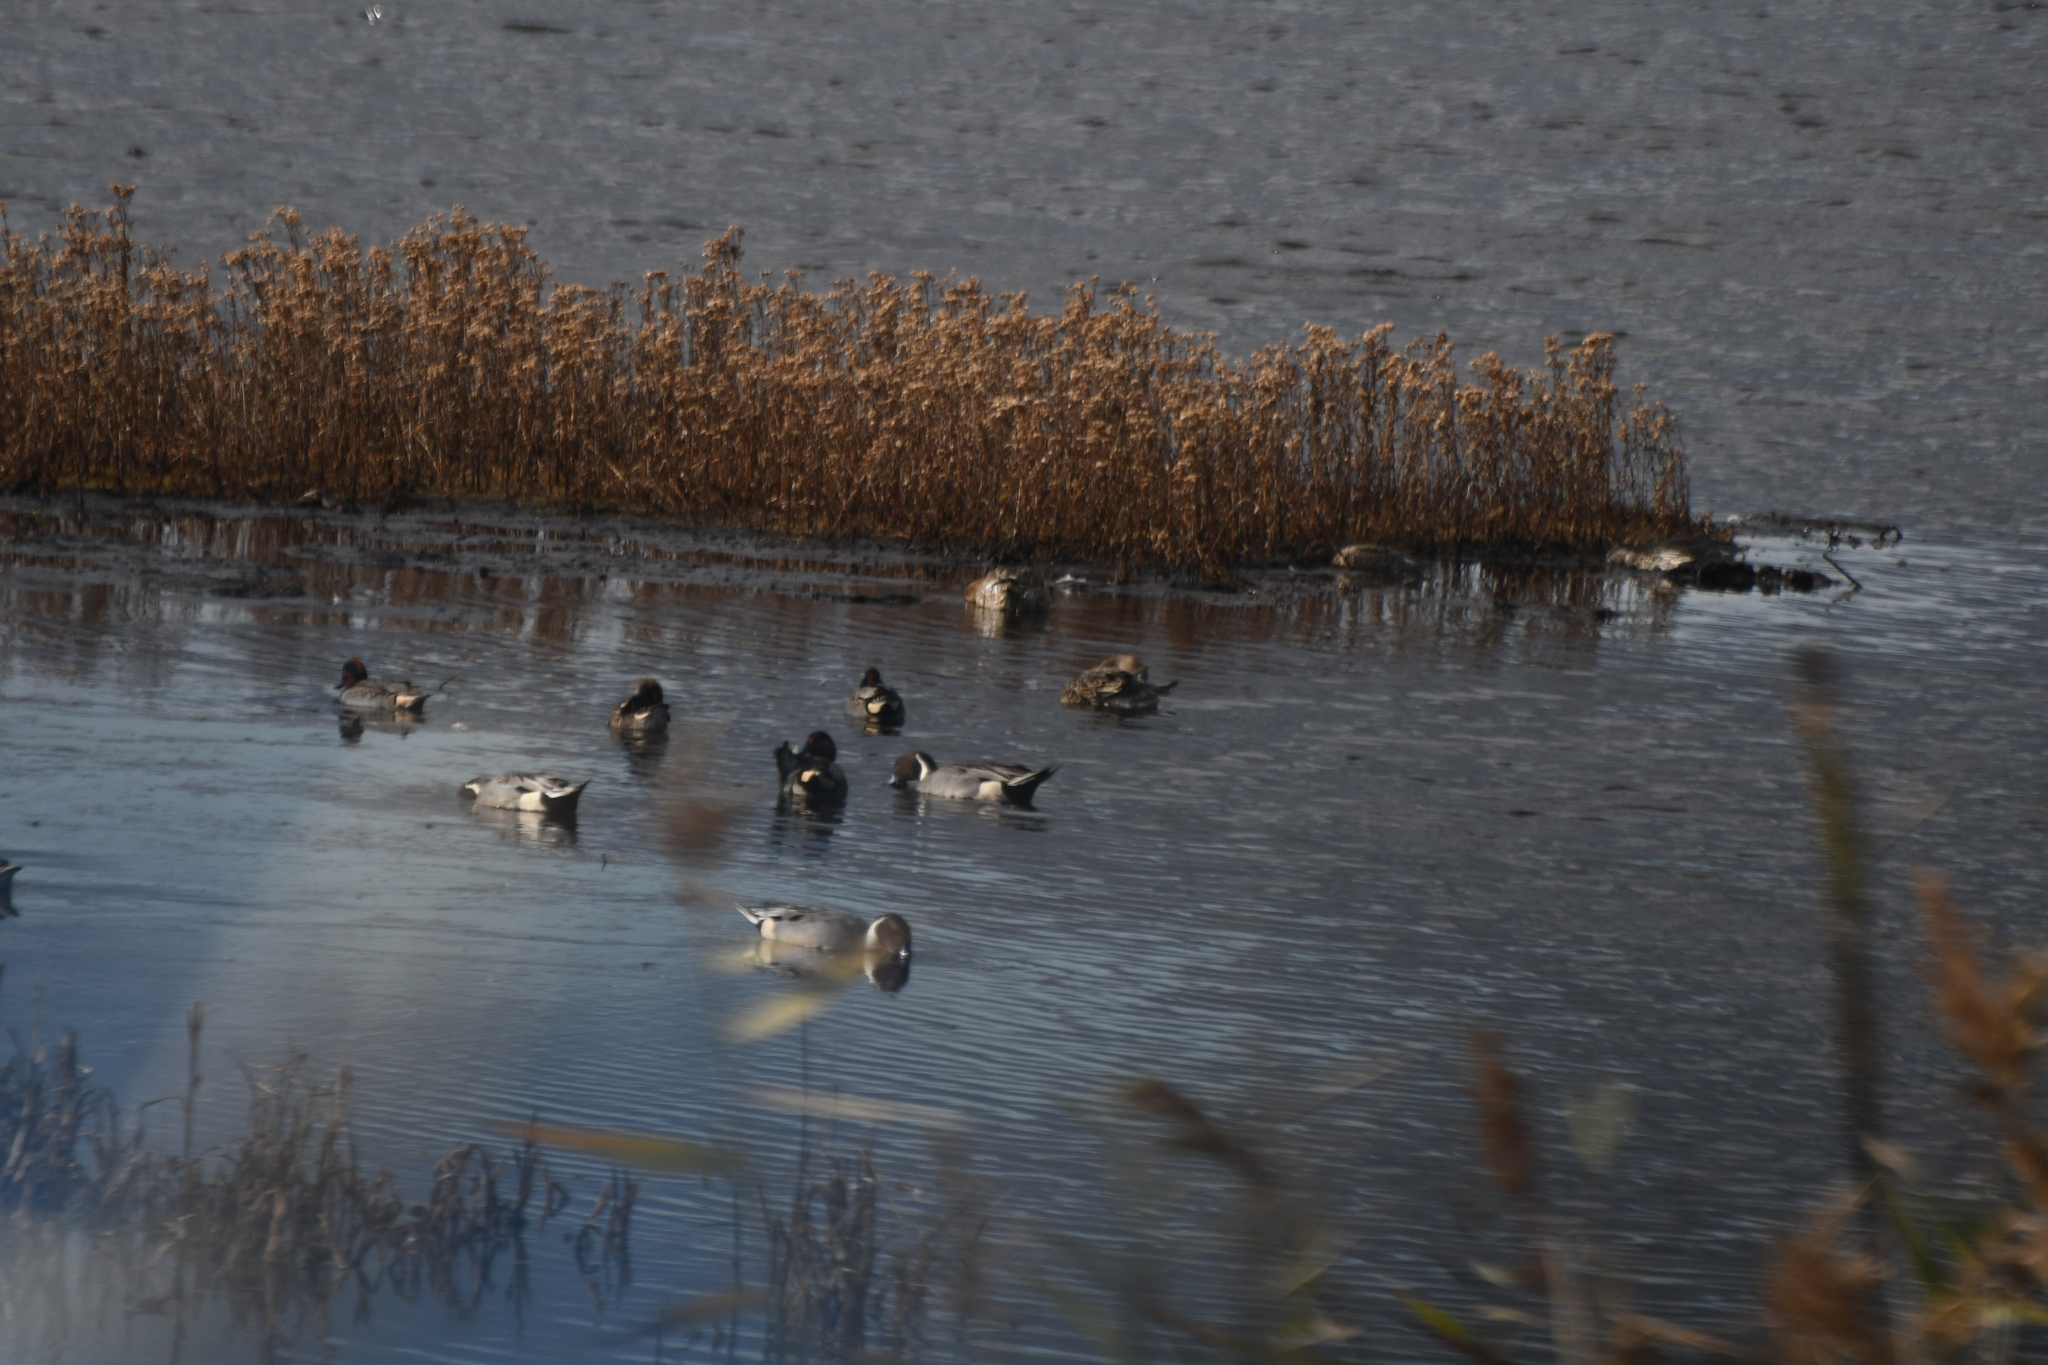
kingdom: Animalia
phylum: Chordata
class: Aves
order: Anseriformes
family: Anatidae
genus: Anas
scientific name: Anas crecca
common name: Eurasian teal
